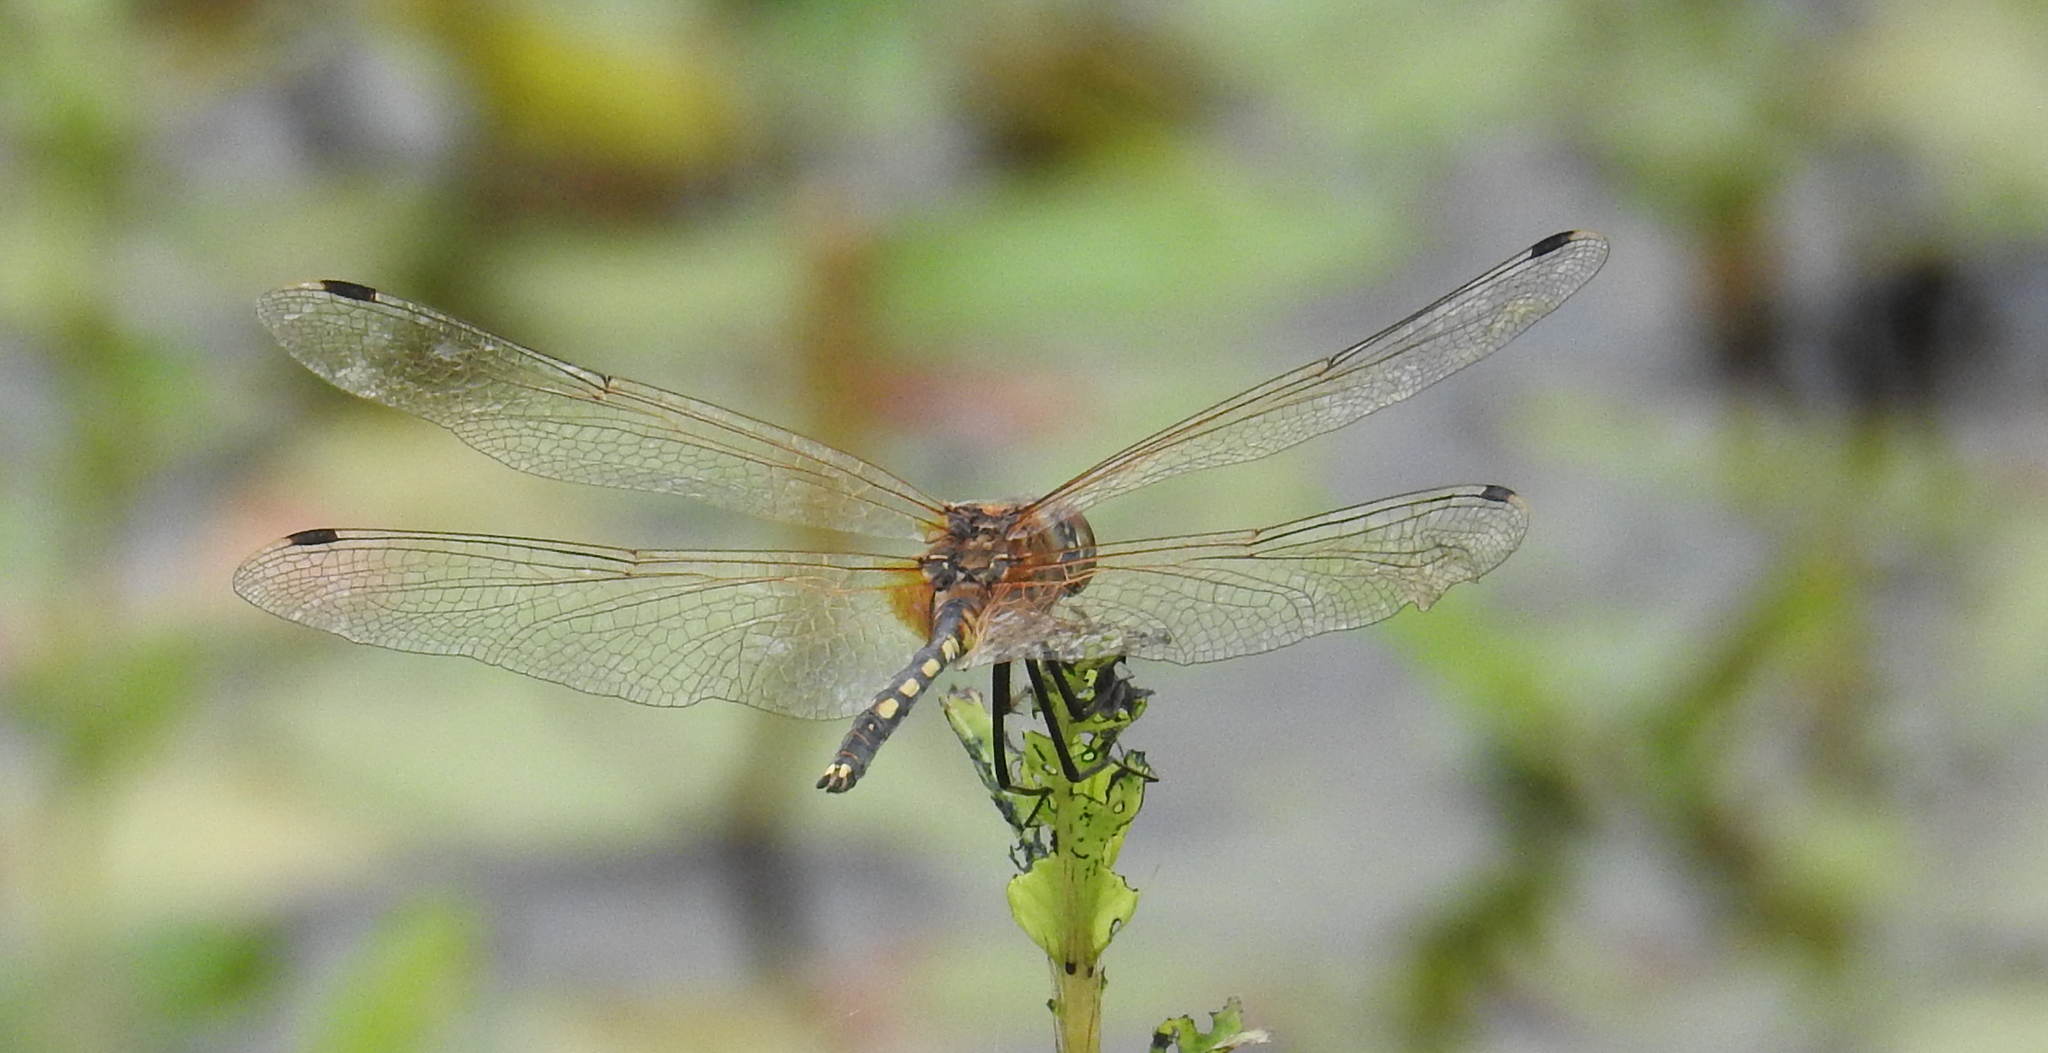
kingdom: Animalia
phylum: Arthropoda
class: Insecta
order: Odonata
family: Libellulidae
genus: Trithemis
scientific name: Trithemis pallidinervis
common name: Dancing dropwing
